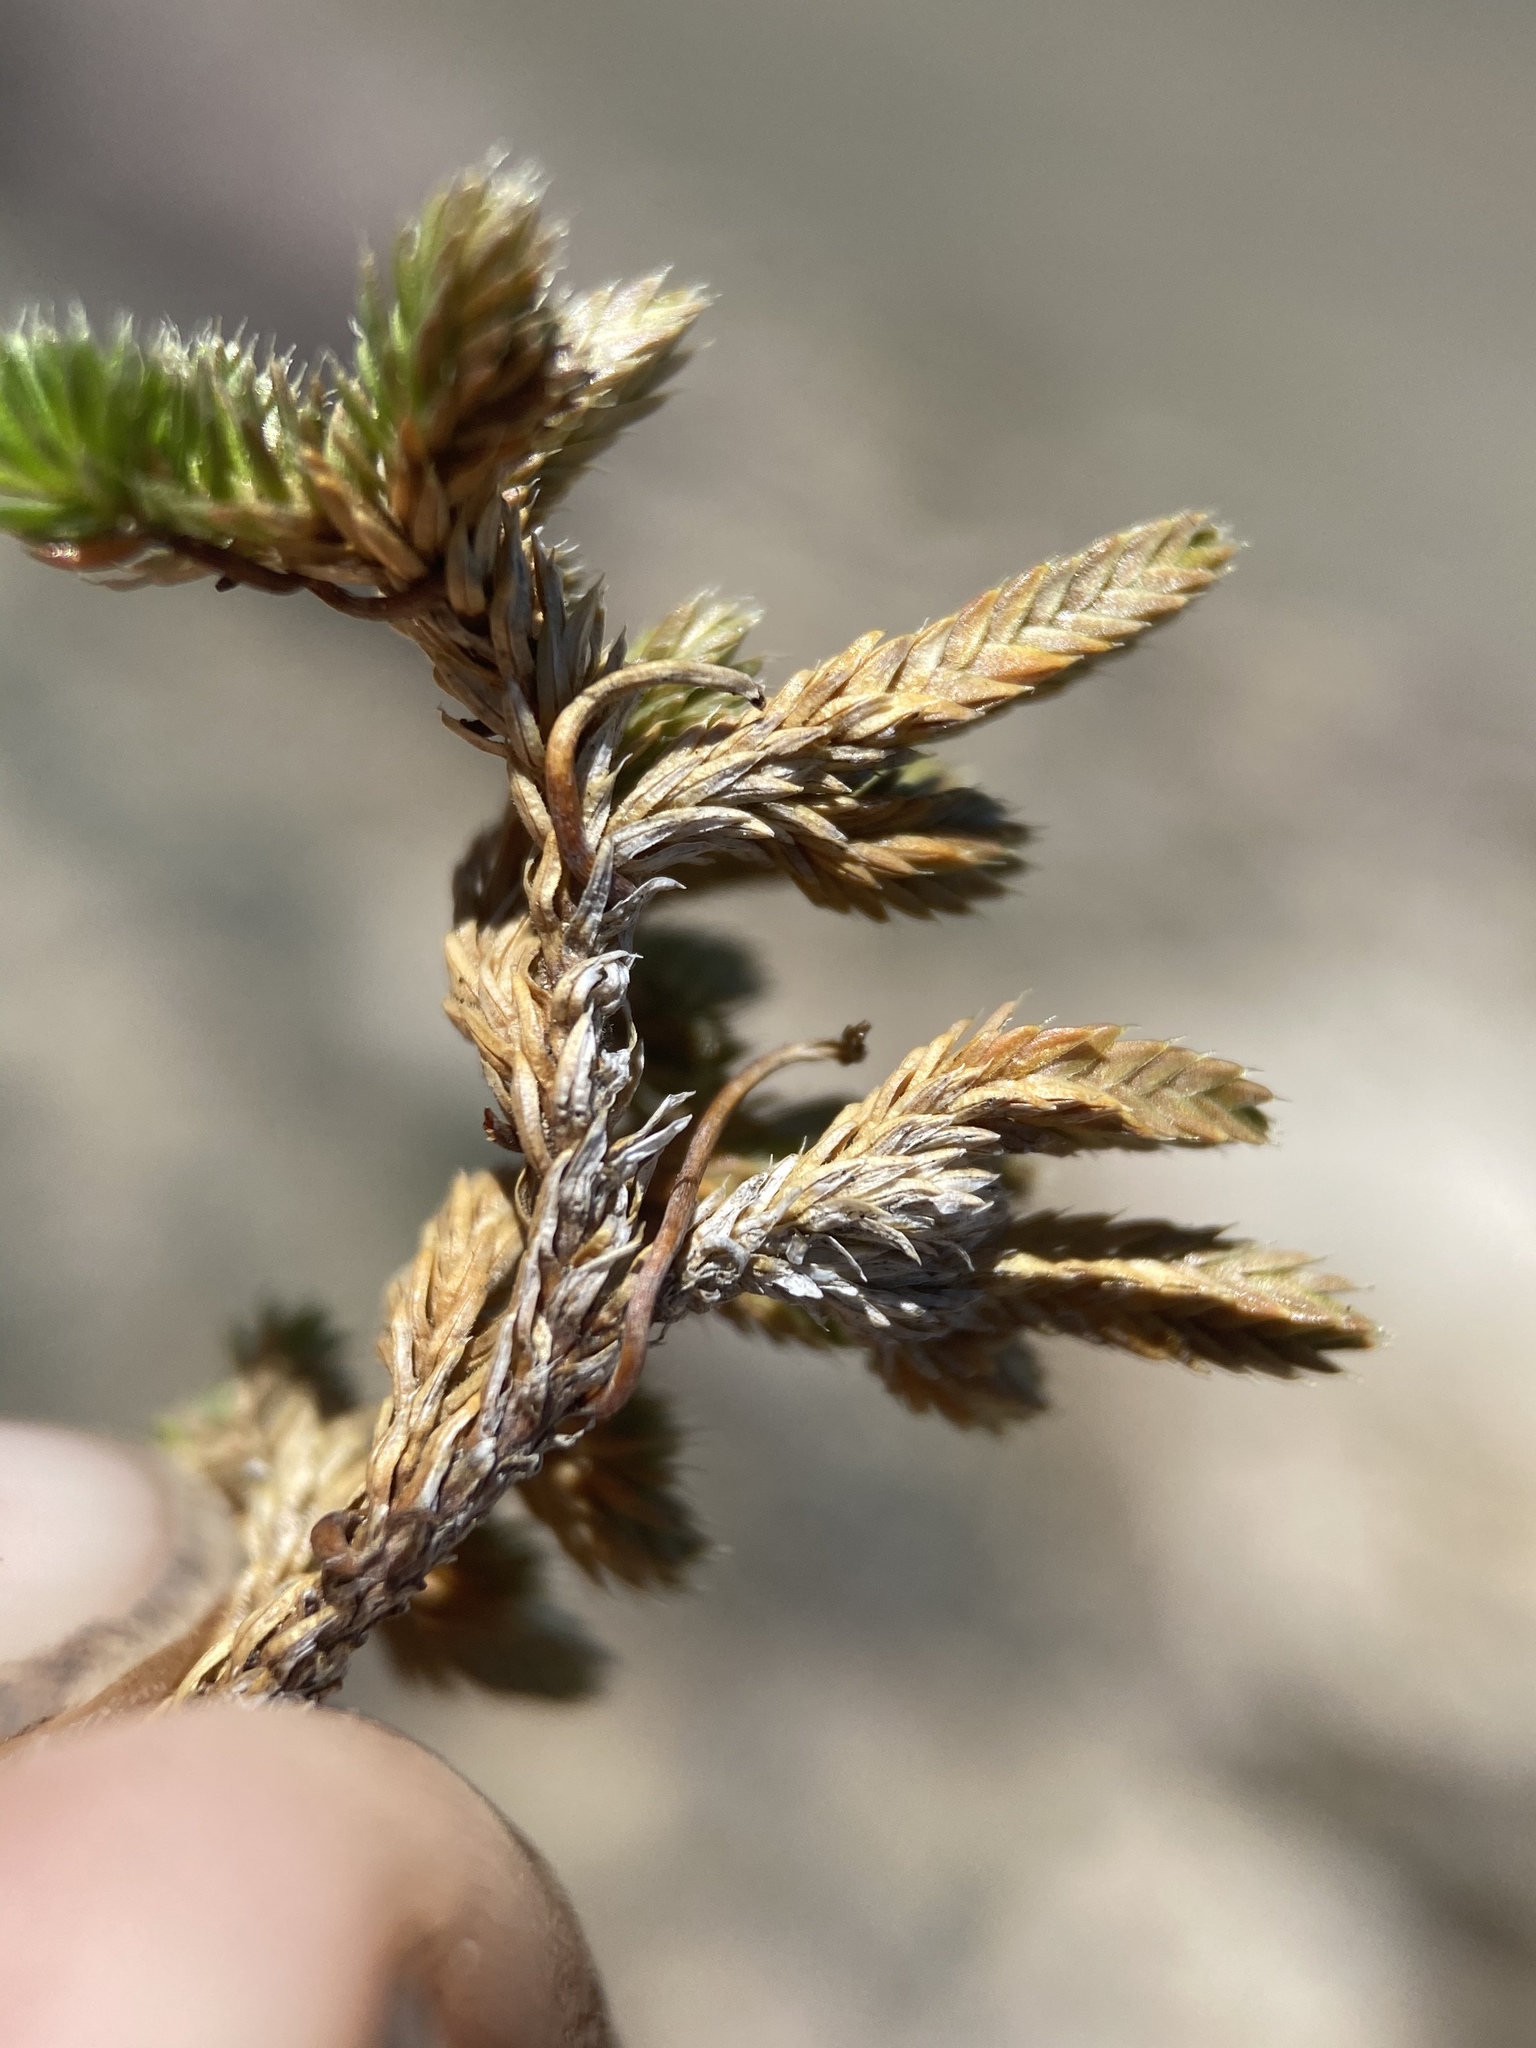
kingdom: Plantae
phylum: Tracheophyta
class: Lycopodiopsida
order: Selaginellales
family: Selaginellaceae
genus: Selaginella
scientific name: Selaginella watsonii
